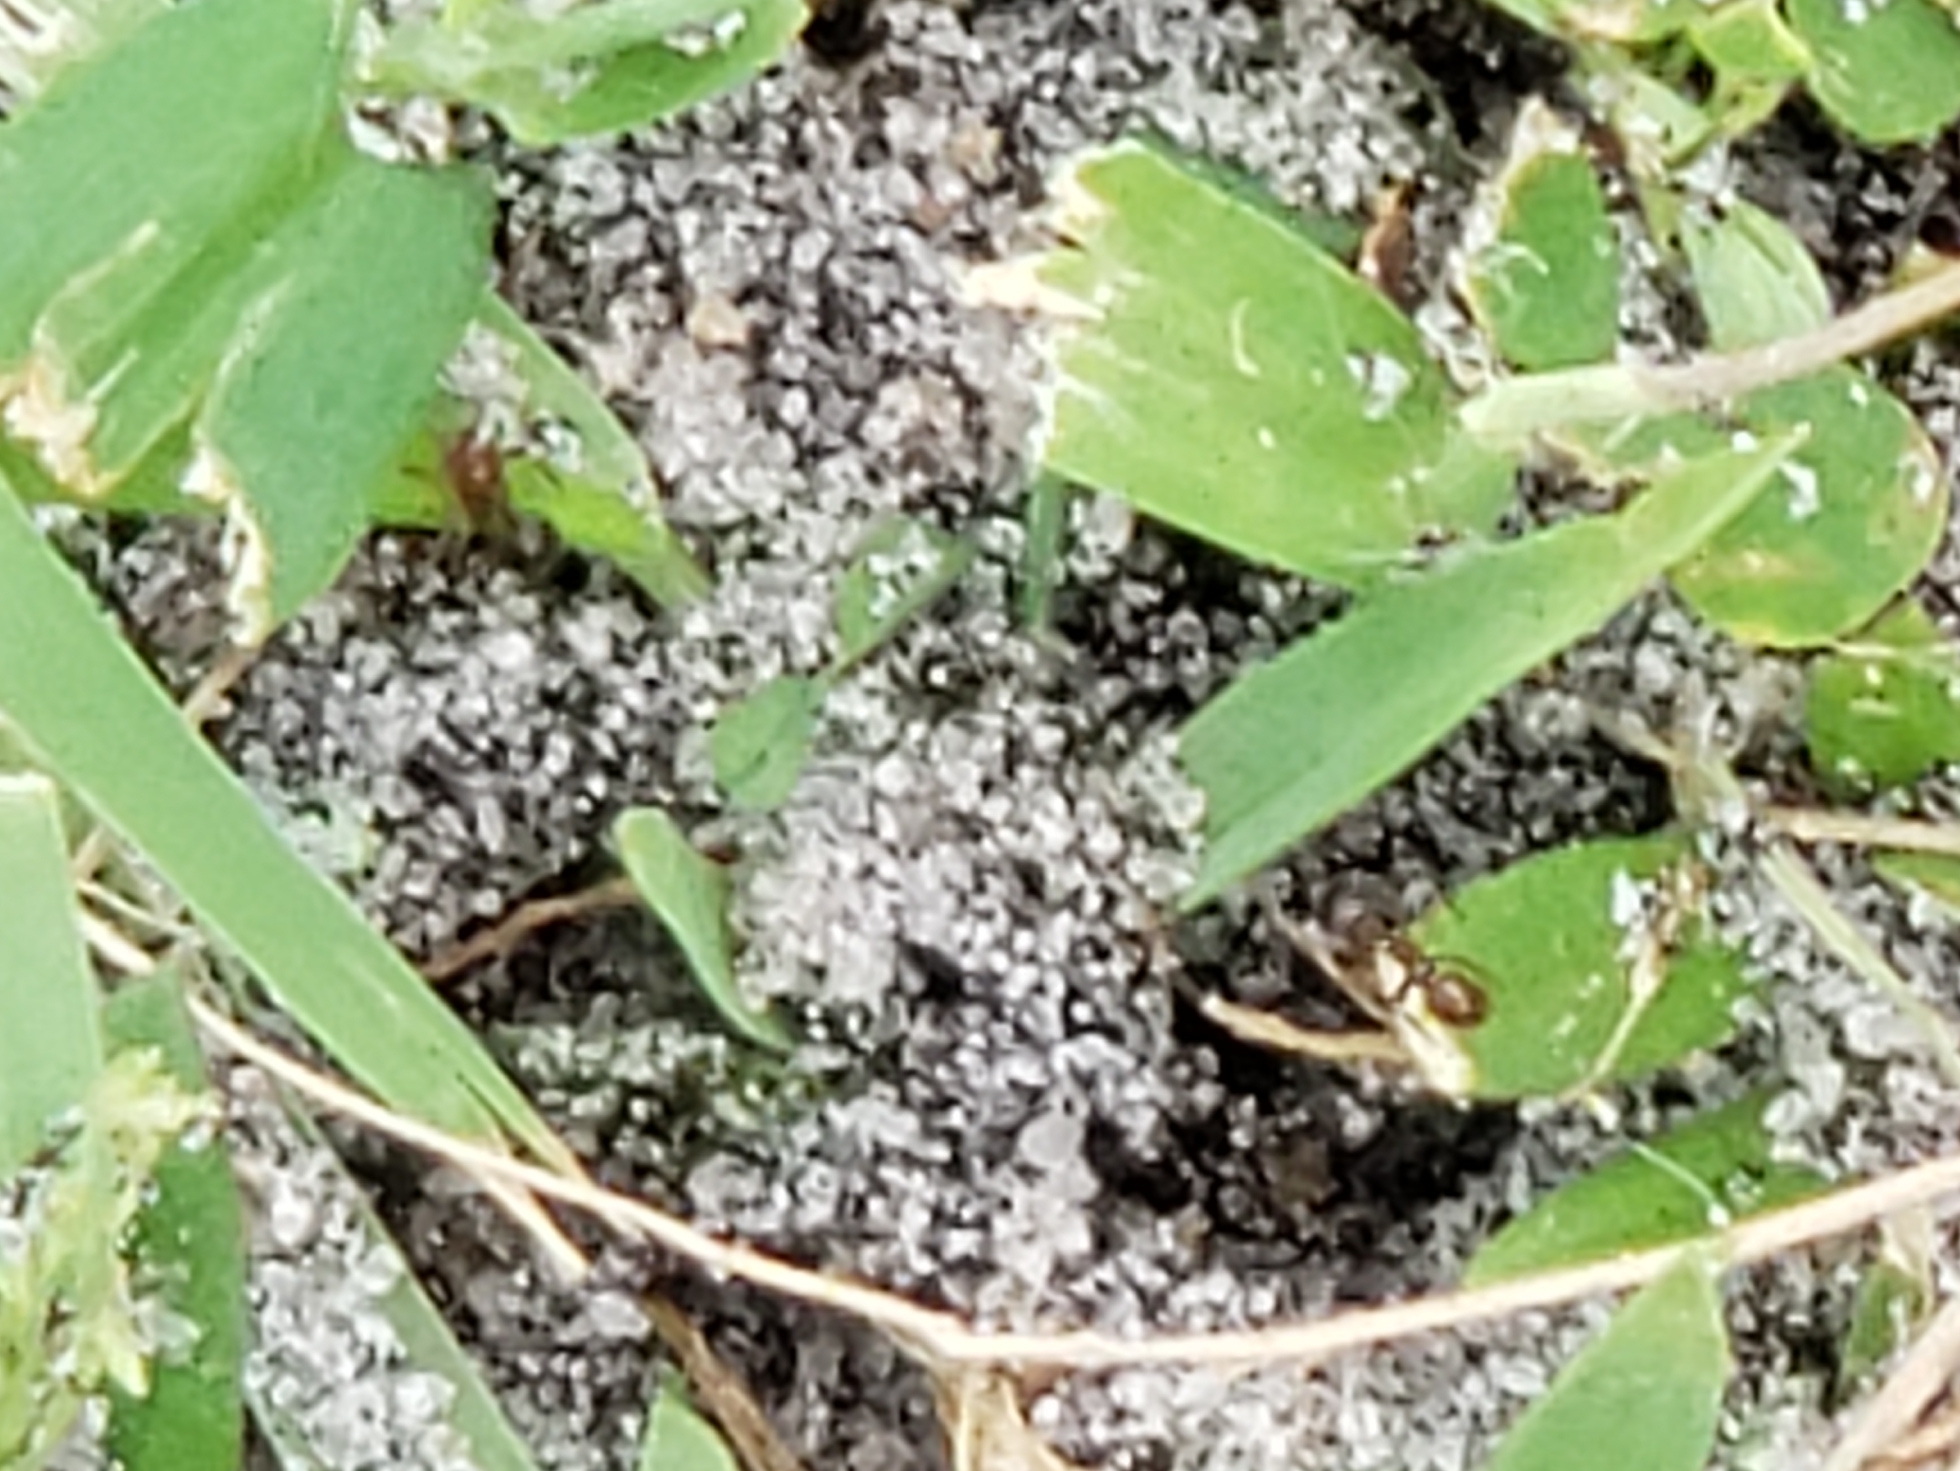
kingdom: Animalia
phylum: Arthropoda
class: Insecta
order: Hymenoptera
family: Formicidae
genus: Solenopsis
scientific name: Solenopsis invicta
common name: Red imported fire ant
